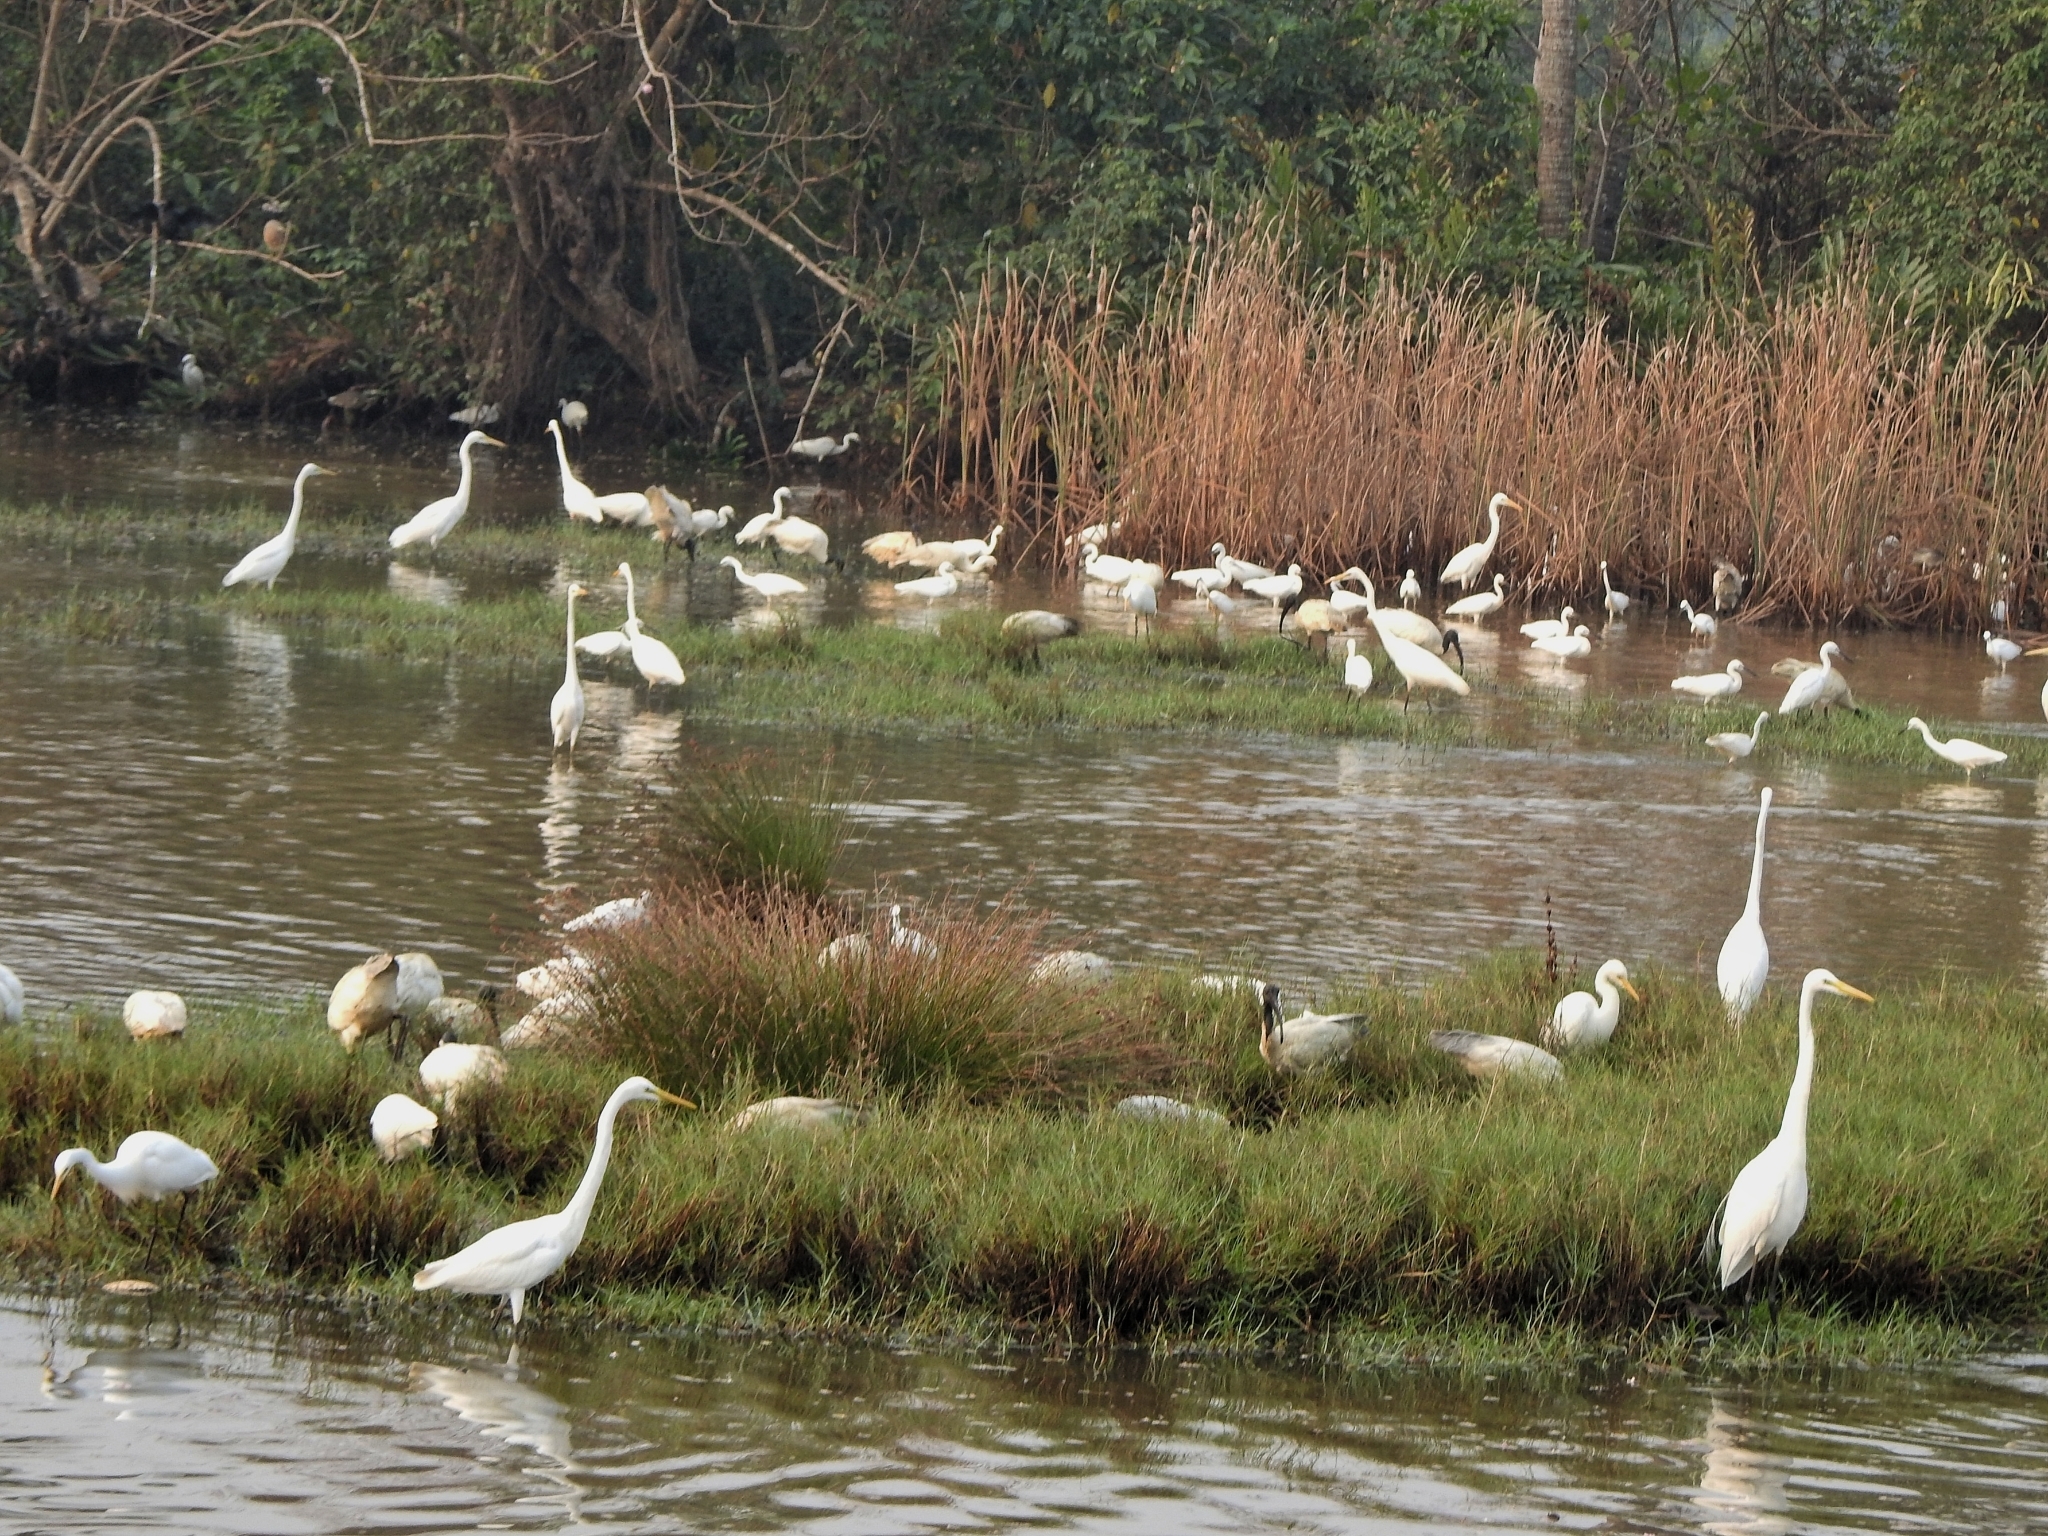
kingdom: Animalia
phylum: Chordata
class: Aves
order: Pelecaniformes
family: Ardeidae
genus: Egretta
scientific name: Egretta intermedia
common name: Intermediate egret
